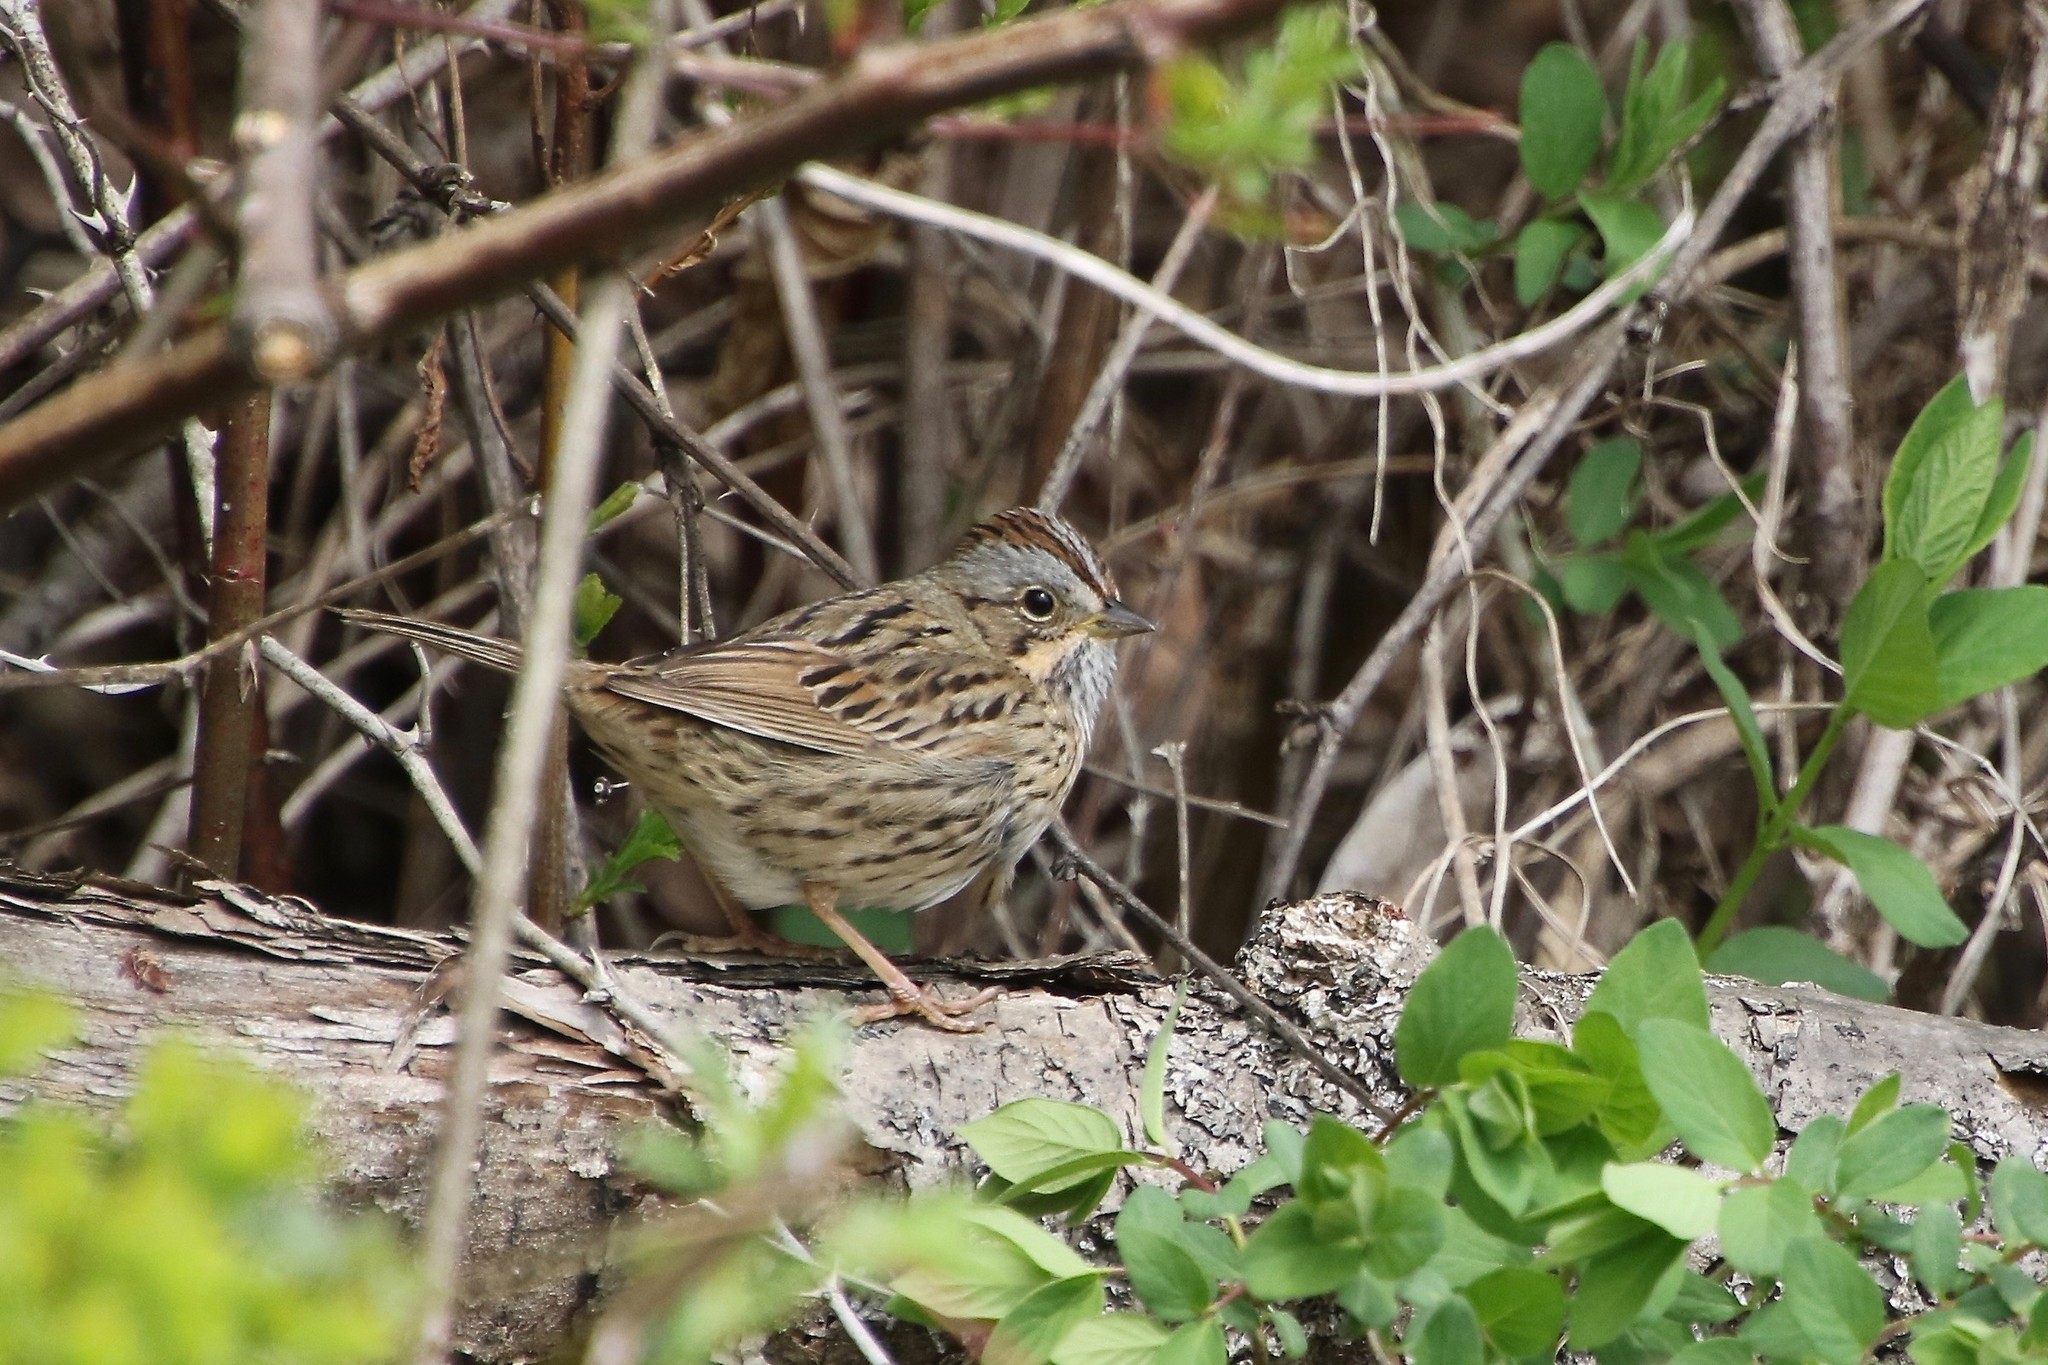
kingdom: Animalia
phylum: Chordata
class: Aves
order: Passeriformes
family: Passerellidae
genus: Melospiza
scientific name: Melospiza lincolnii
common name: Lincoln's sparrow
